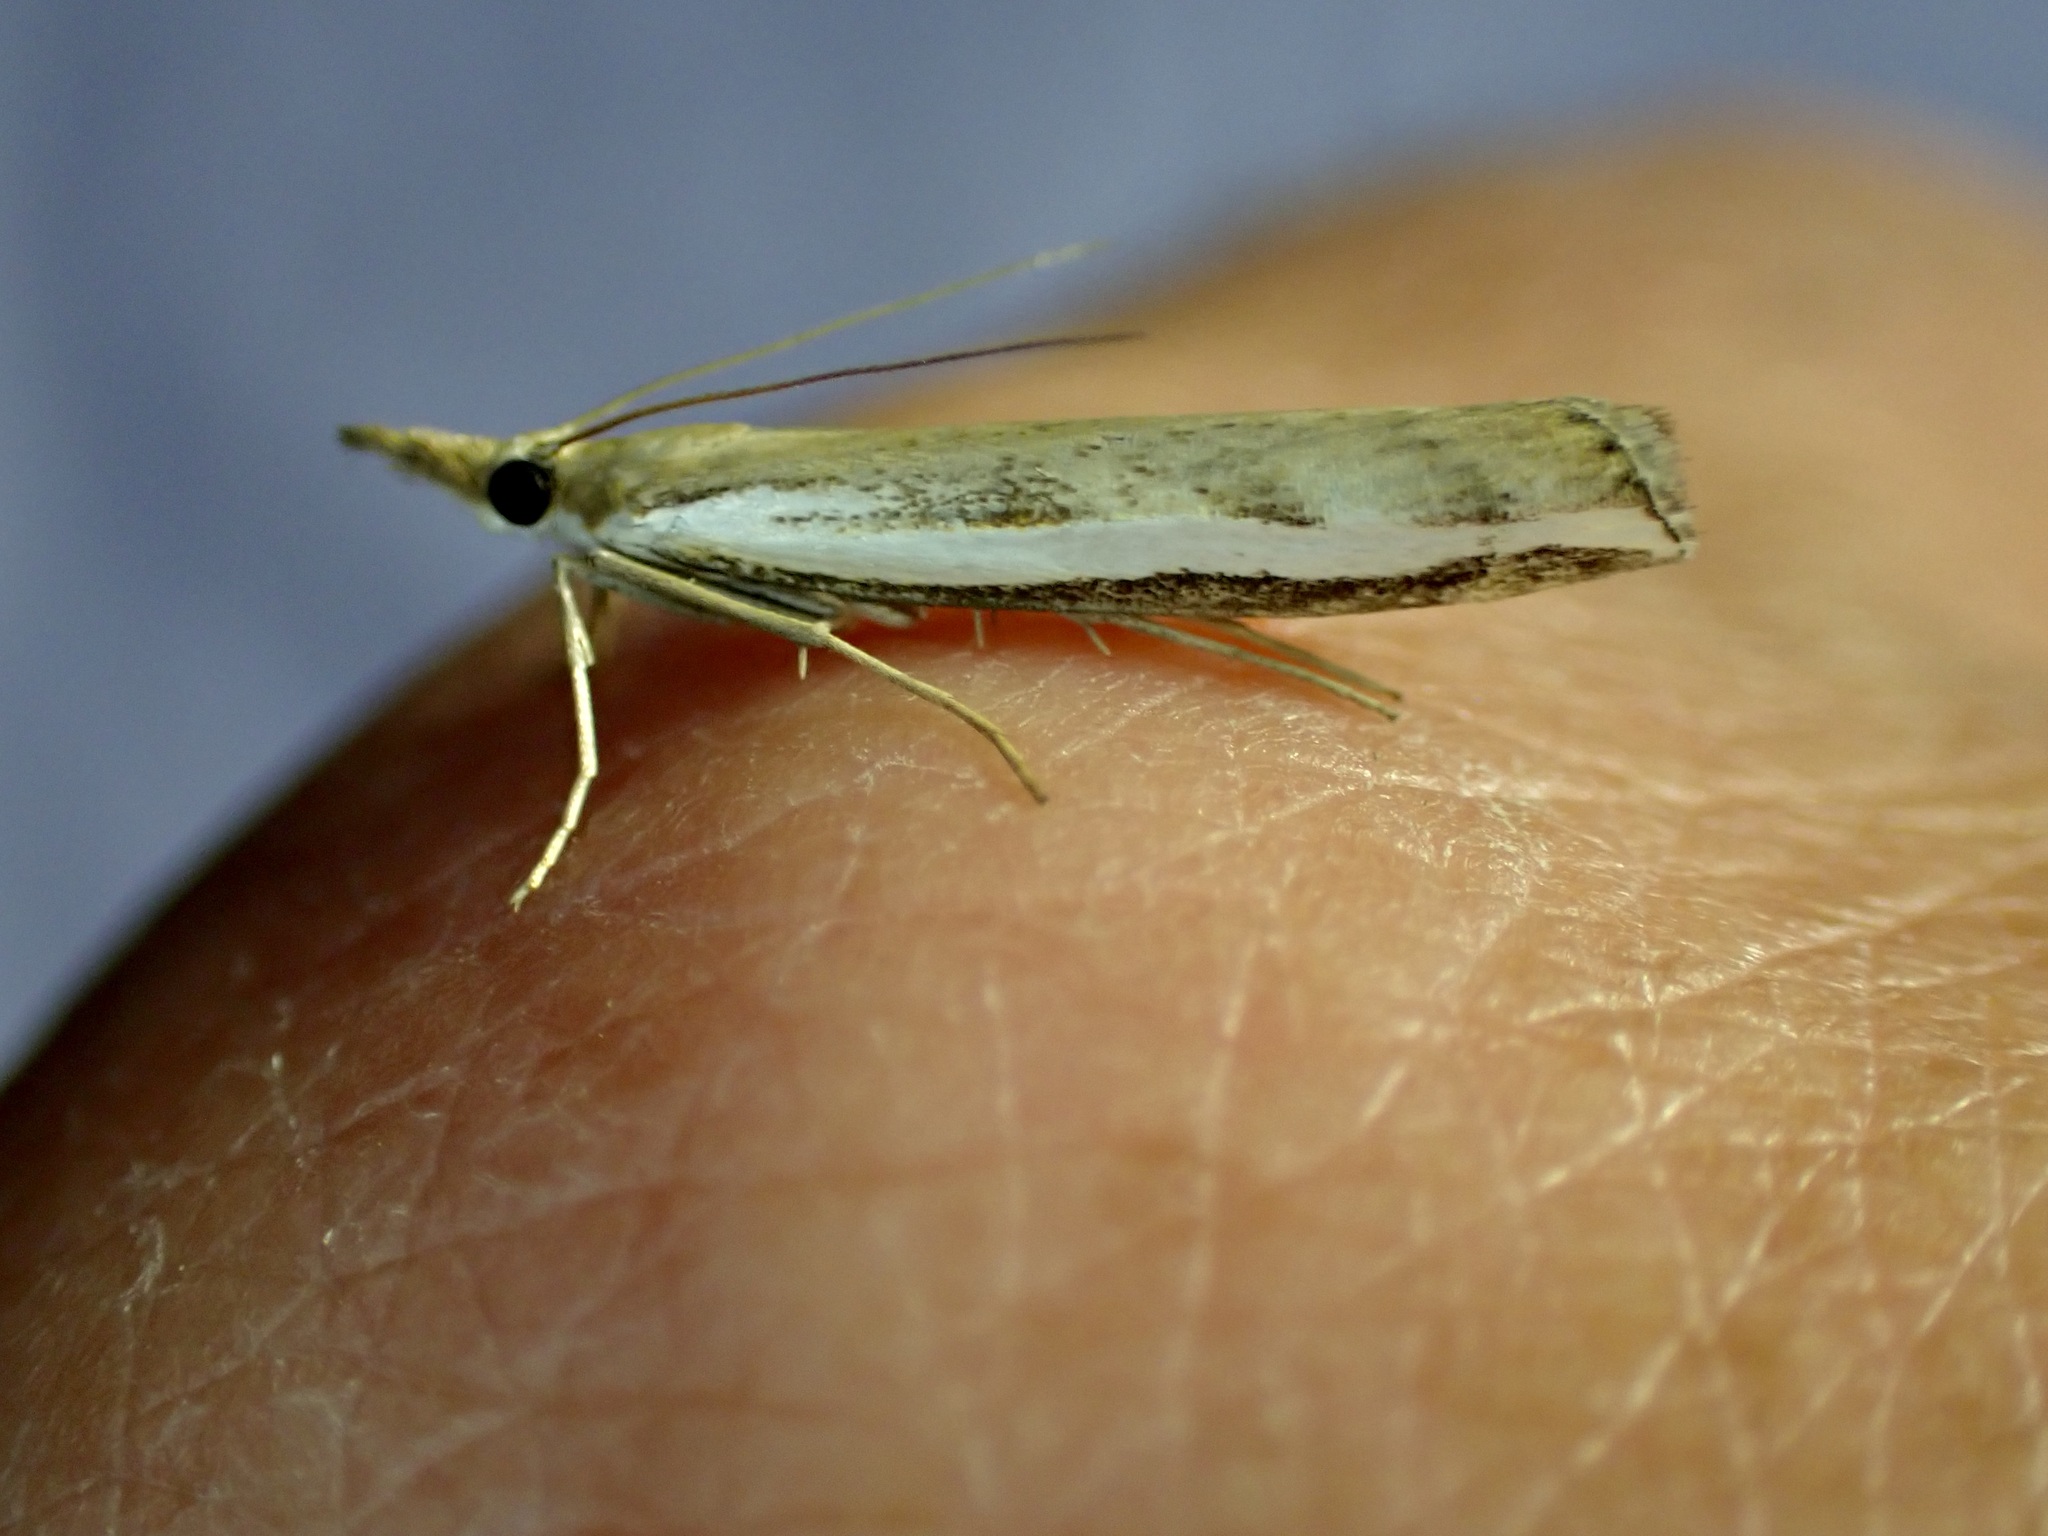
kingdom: Animalia
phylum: Arthropoda
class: Insecta
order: Lepidoptera
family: Crambidae
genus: Orocrambus
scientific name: Orocrambus flexuosellus
